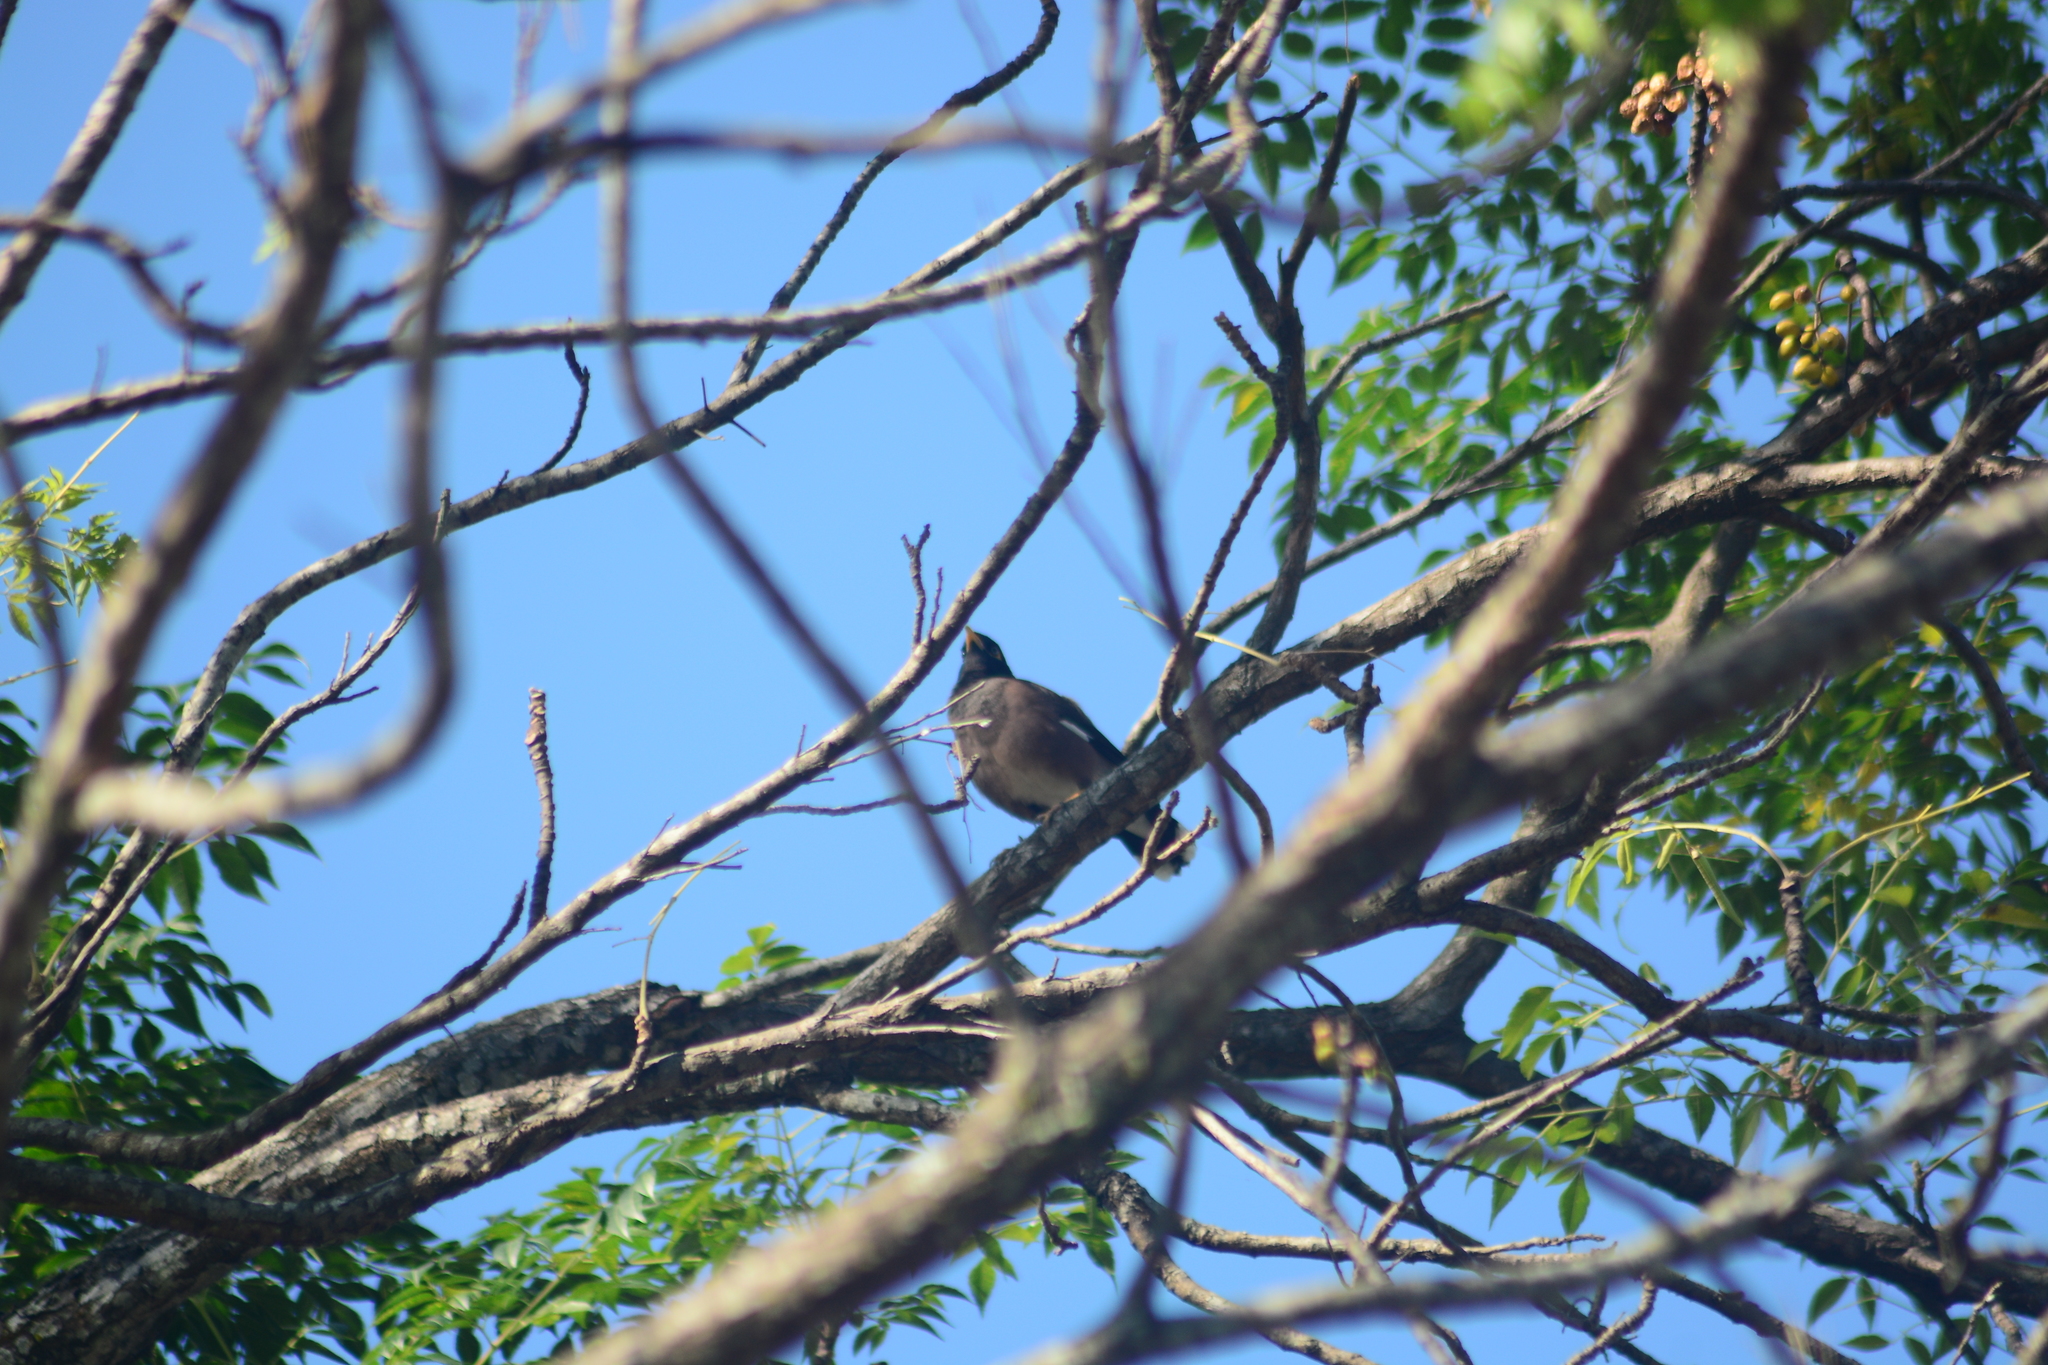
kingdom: Animalia
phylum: Chordata
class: Aves
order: Passeriformes
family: Sturnidae
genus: Acridotheres
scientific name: Acridotheres tristis
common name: Common myna
